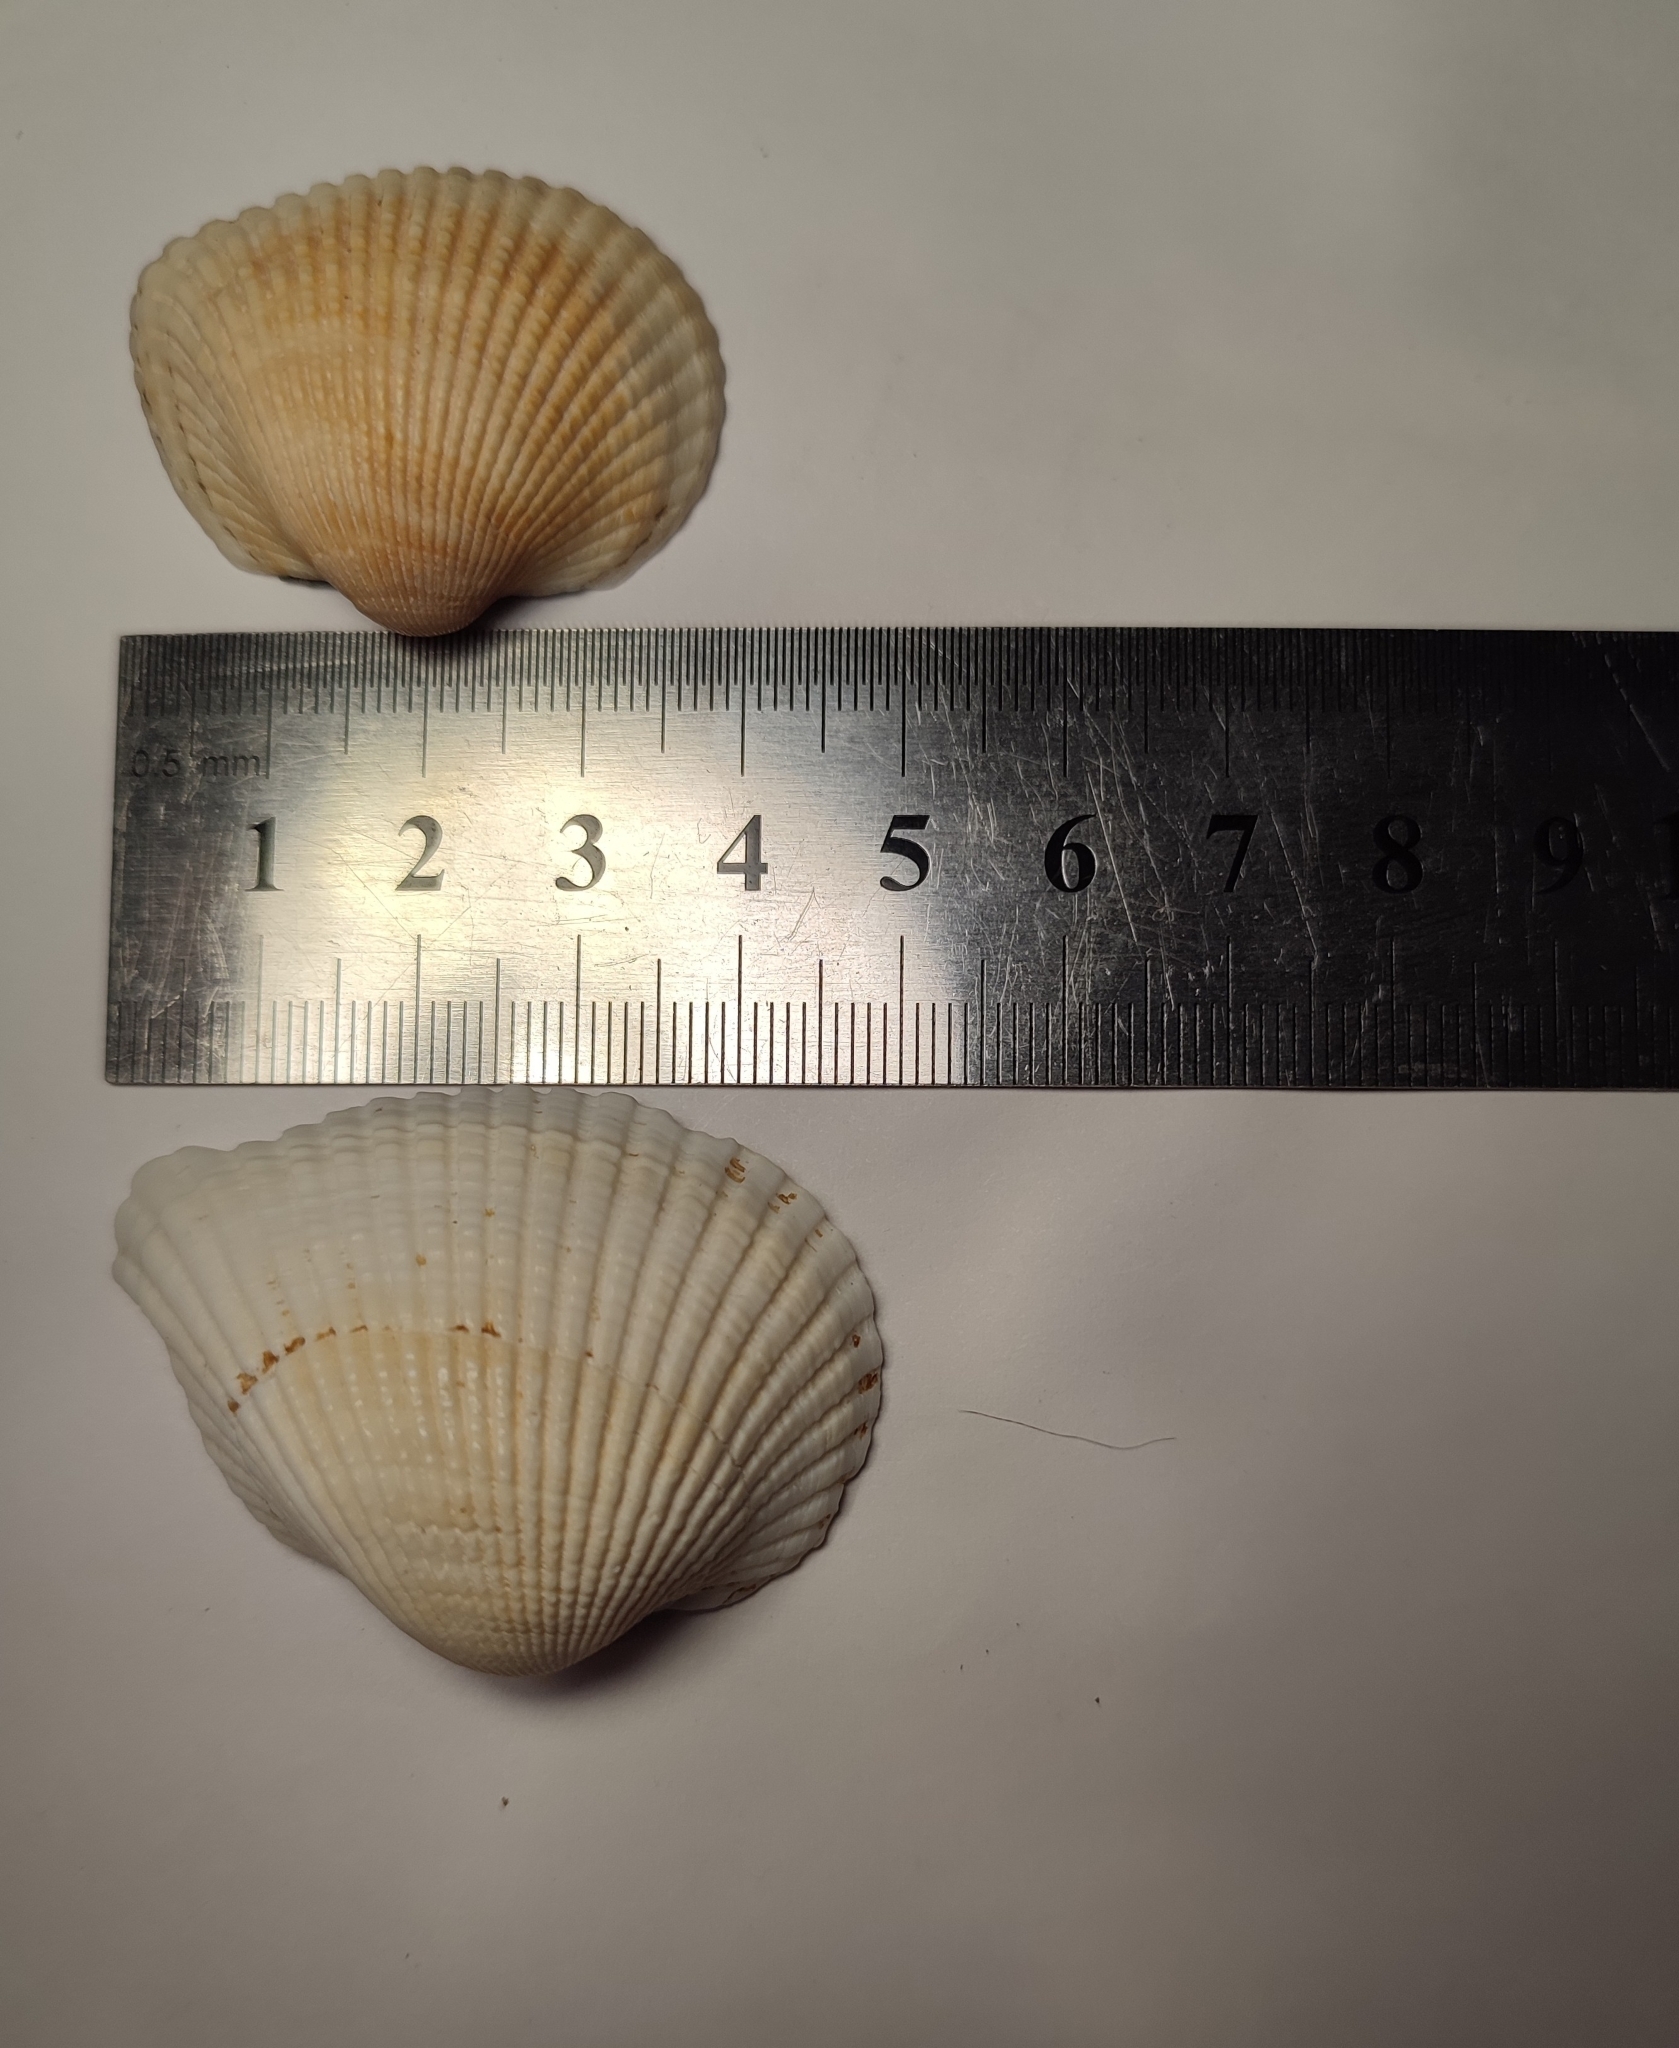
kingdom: Animalia
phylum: Mollusca
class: Bivalvia
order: Arcida
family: Arcidae
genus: Anadara
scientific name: Anadara kagoshimensis
